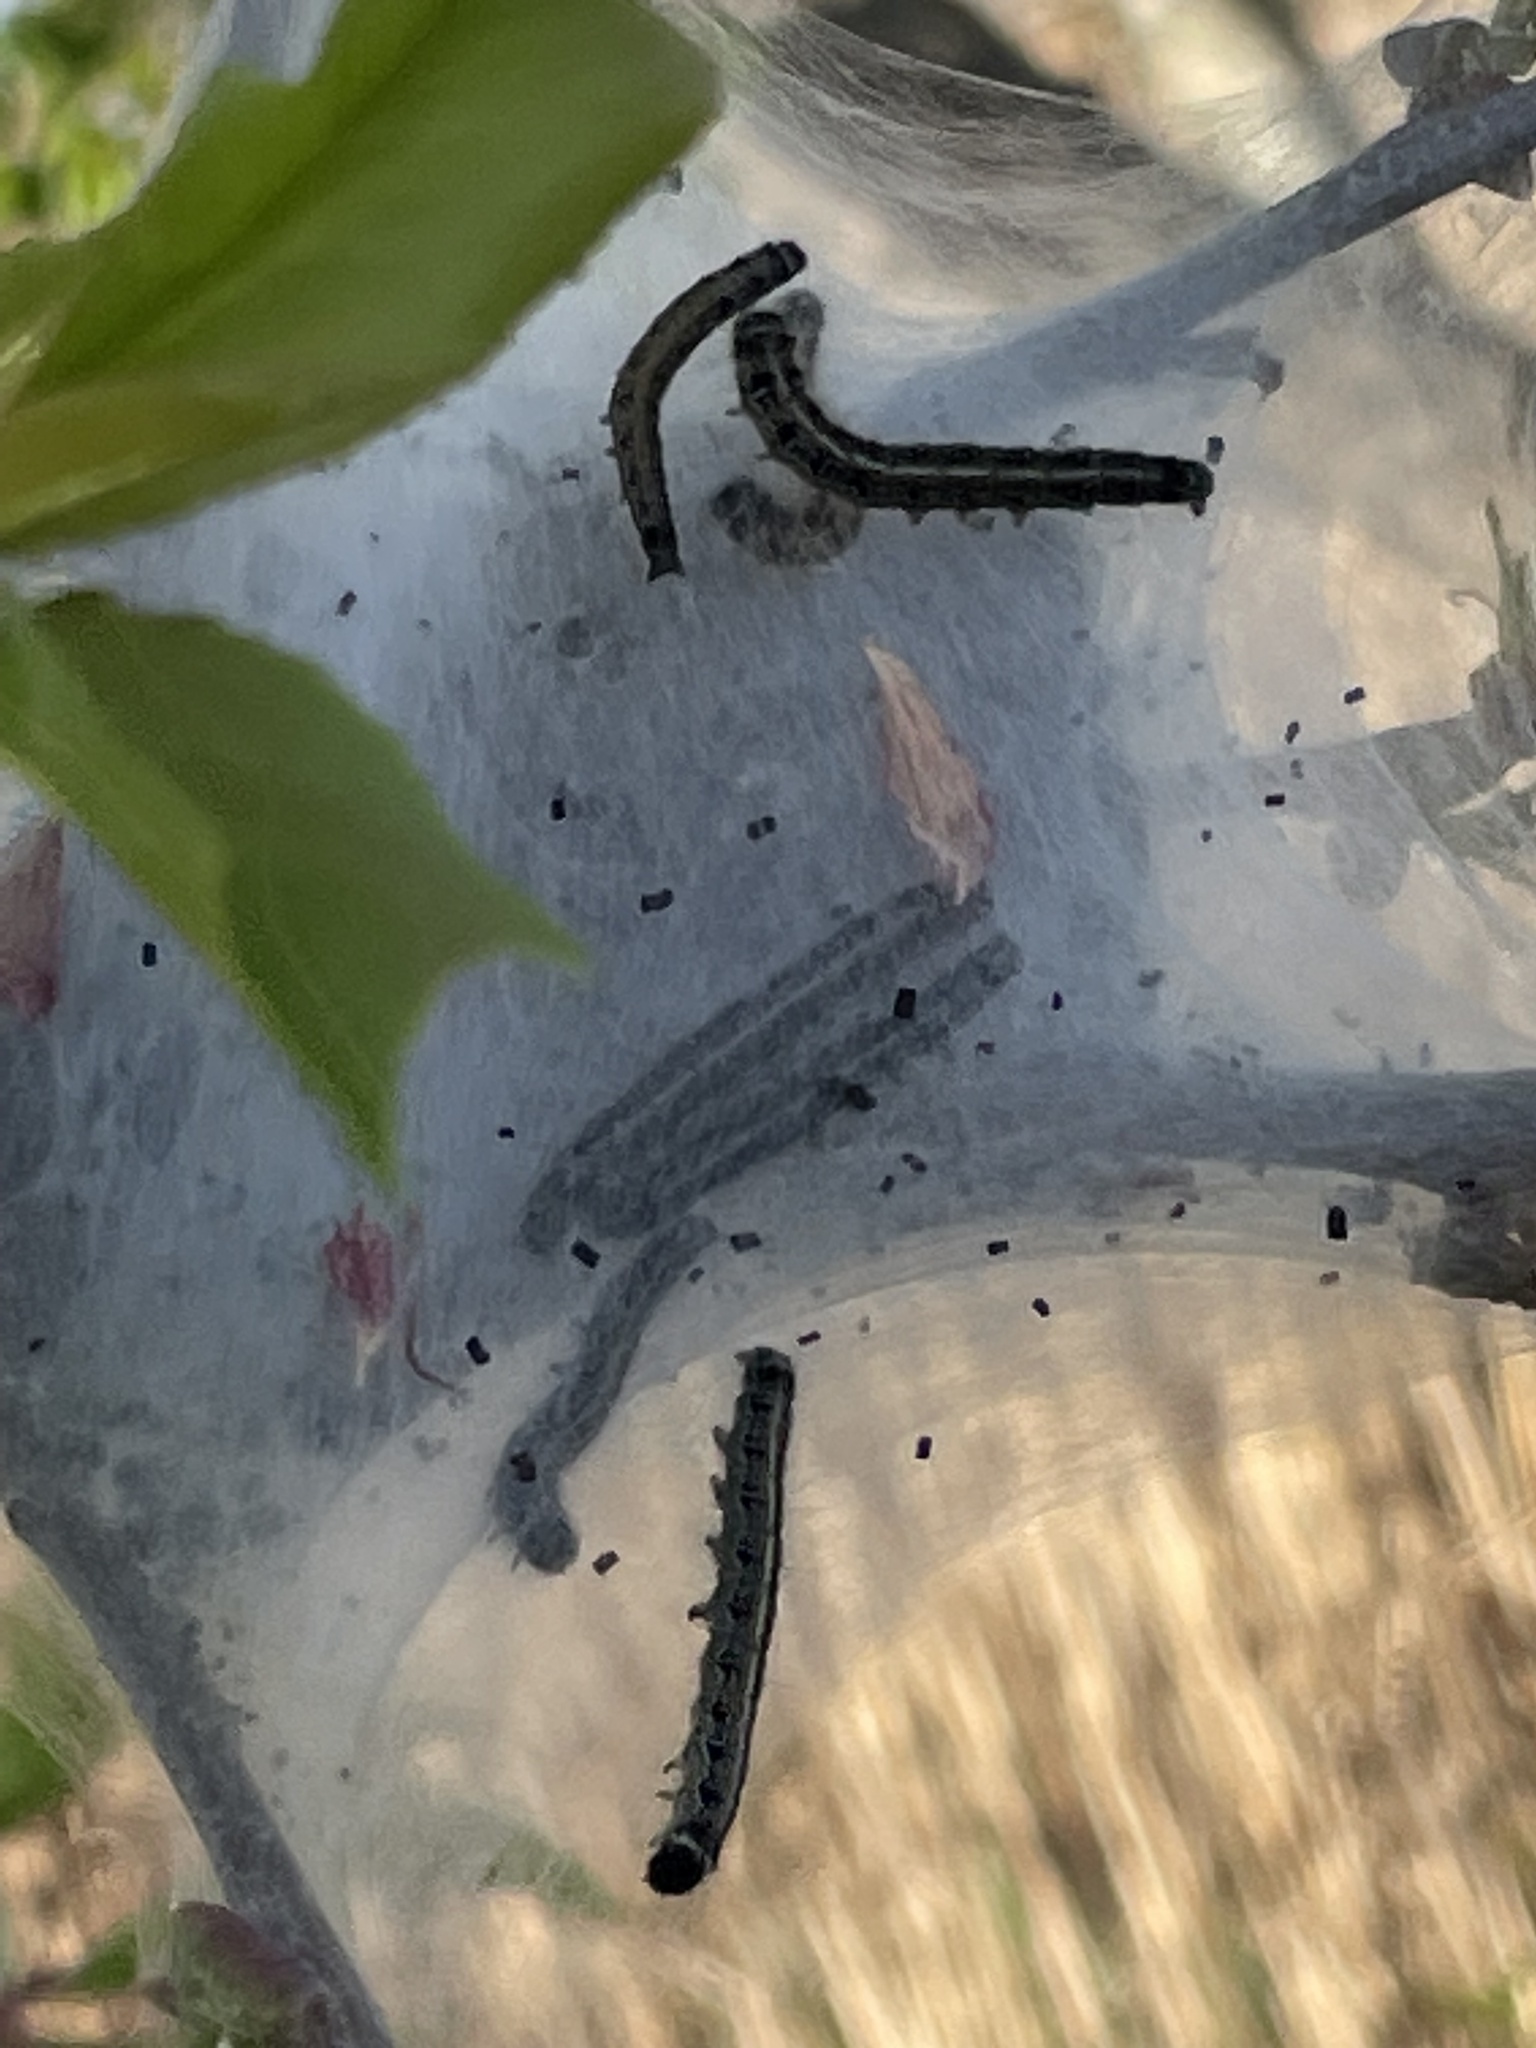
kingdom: Animalia
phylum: Arthropoda
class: Insecta
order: Lepidoptera
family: Lasiocampidae
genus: Malacosoma
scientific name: Malacosoma americana
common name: Eastern tent caterpillar moth
